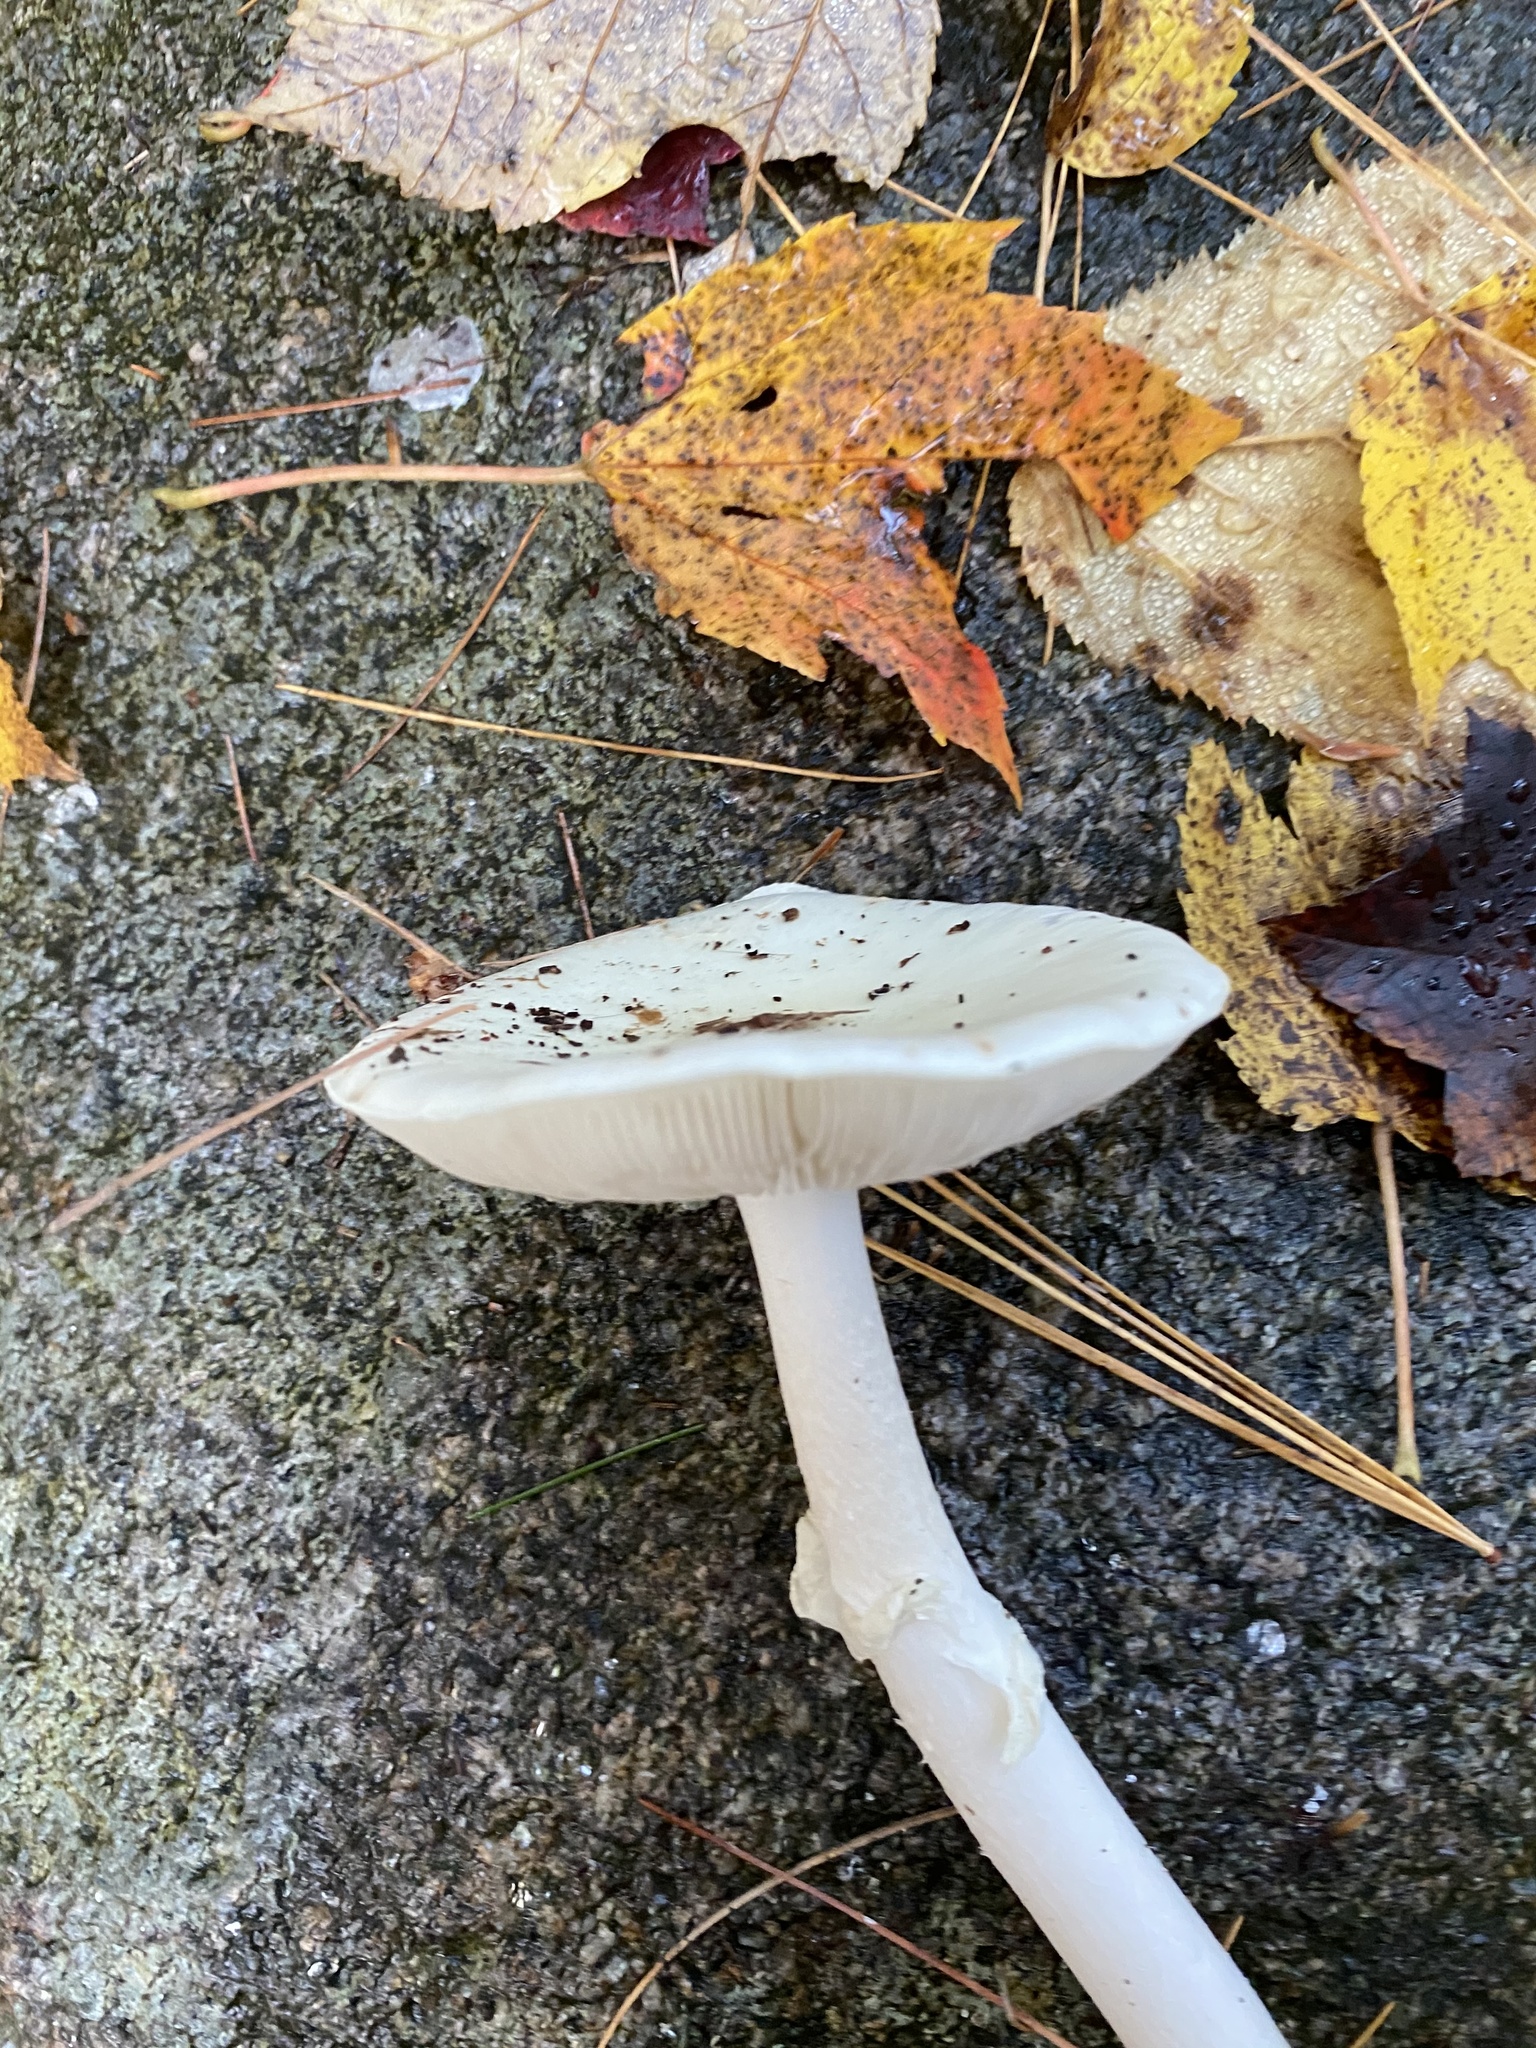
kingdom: Fungi
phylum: Basidiomycota
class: Agaricomycetes
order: Agaricales
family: Amanitaceae
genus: Amanita
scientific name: Amanita bisporigera
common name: Eastern north american destroying angel
